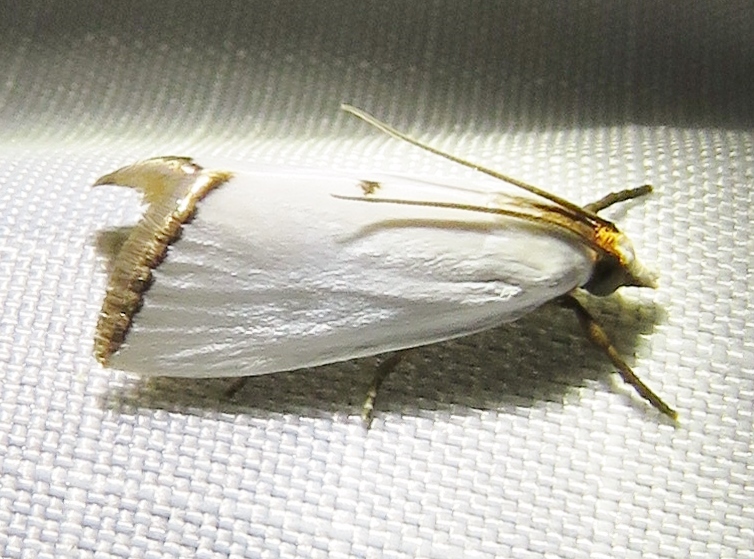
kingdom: Animalia
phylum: Arthropoda
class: Insecta
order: Lepidoptera
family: Crambidae
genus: Argyria
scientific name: Argyria nivalis
